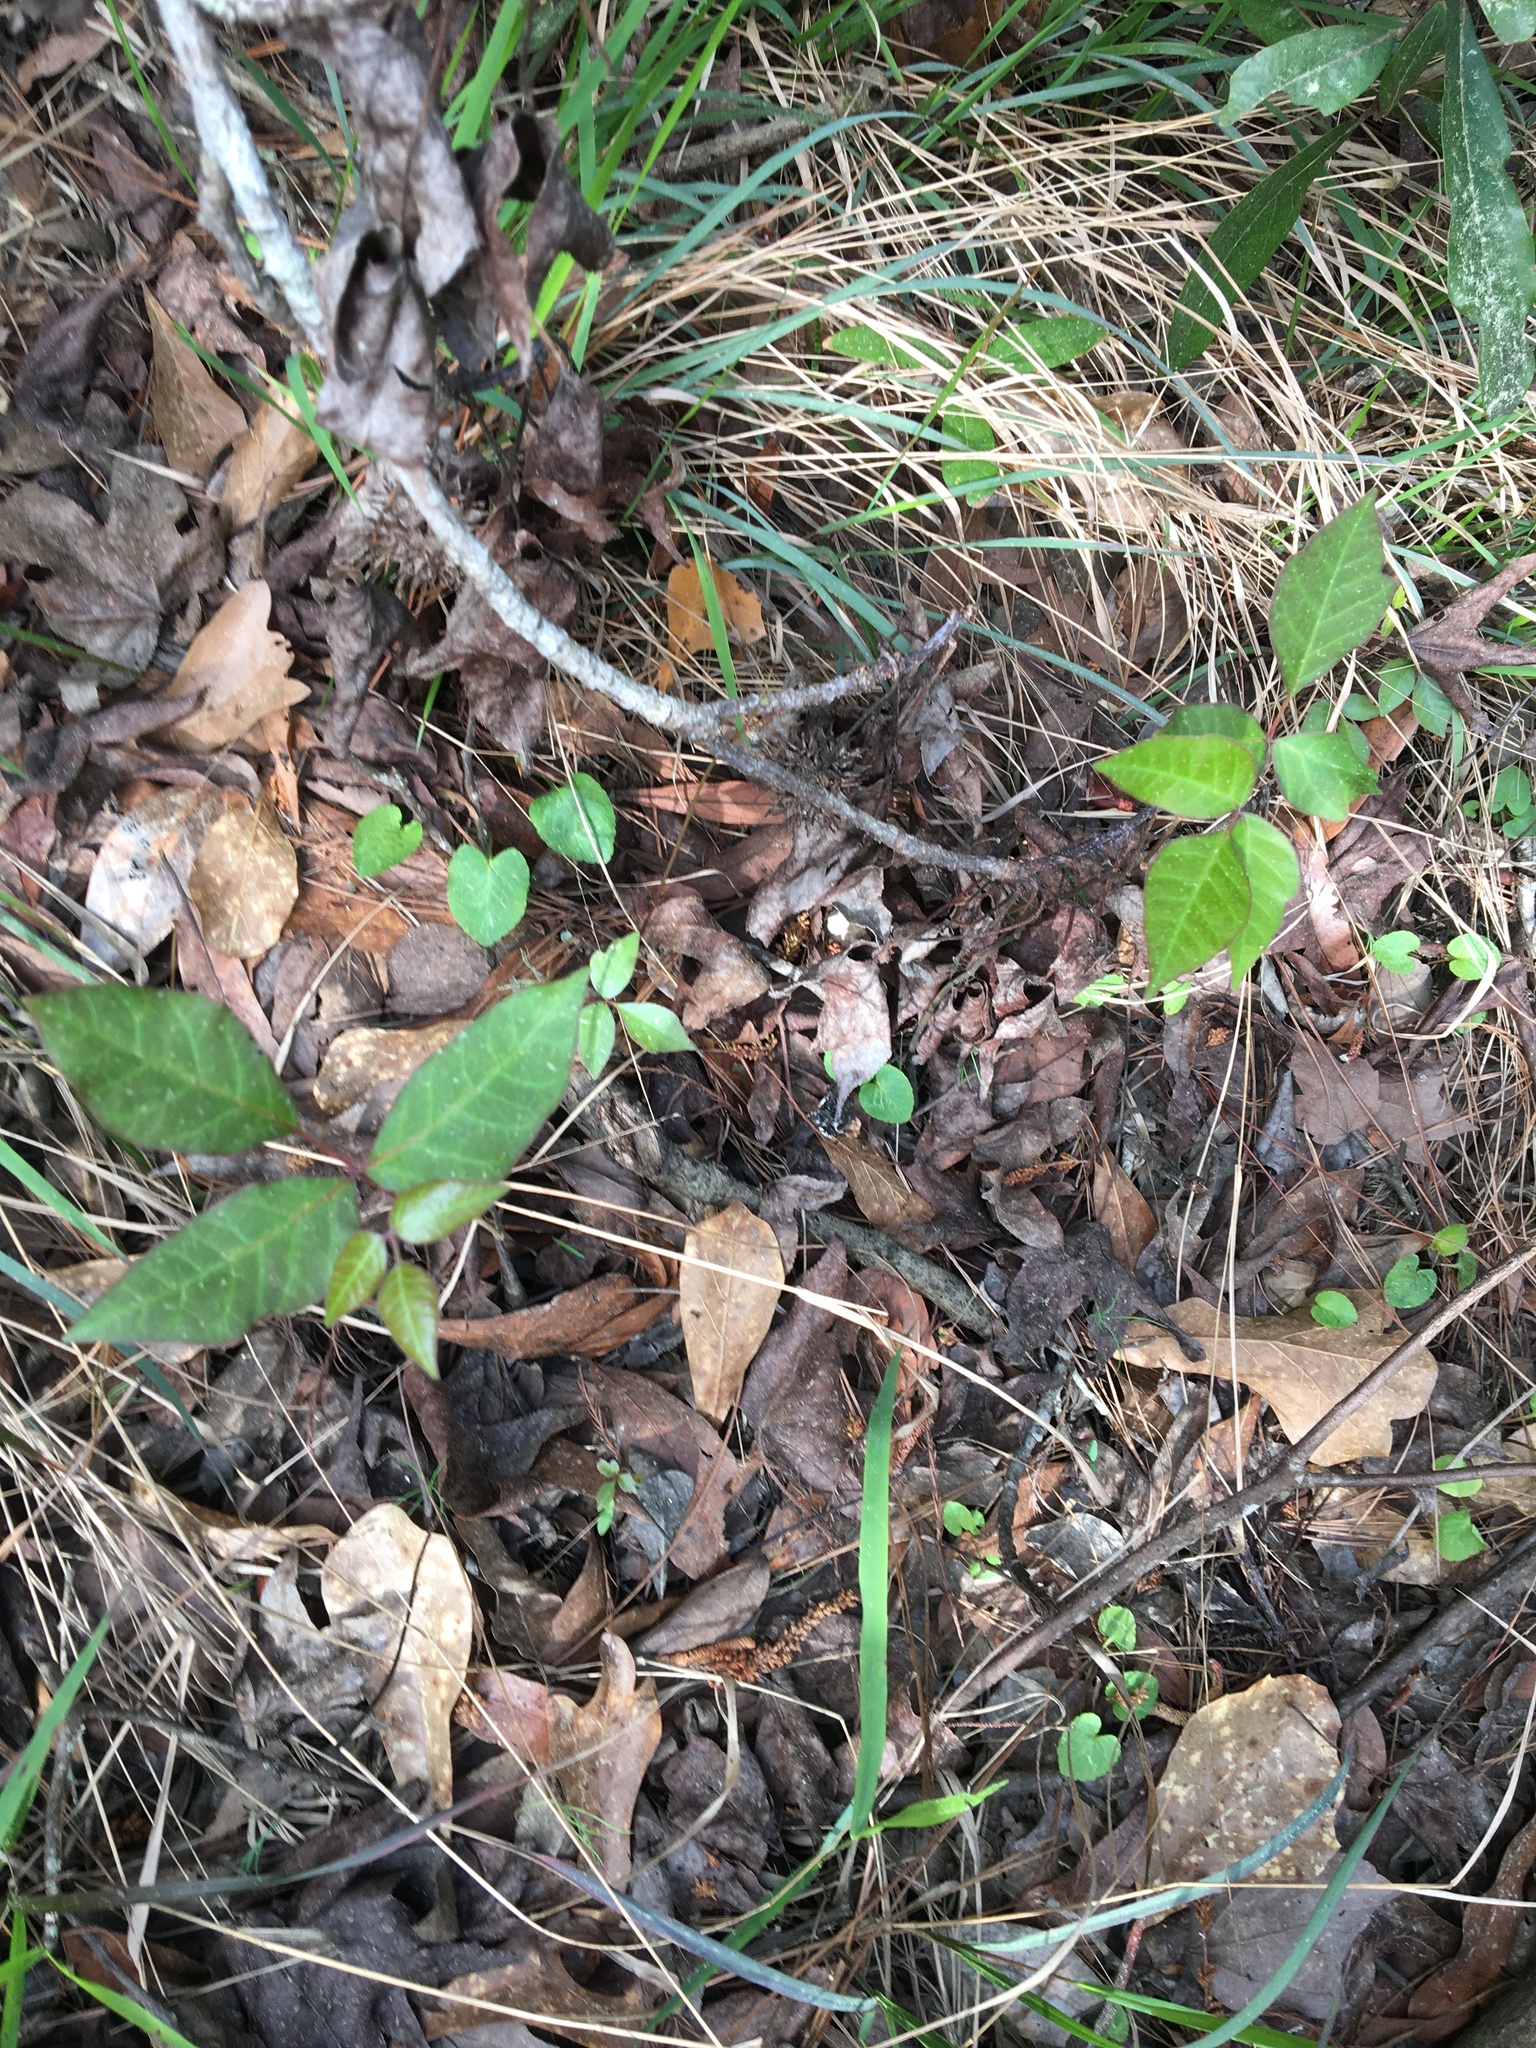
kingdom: Plantae
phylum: Tracheophyta
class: Magnoliopsida
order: Sapindales
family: Anacardiaceae
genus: Toxicodendron
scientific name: Toxicodendron radicans
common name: Poison ivy
